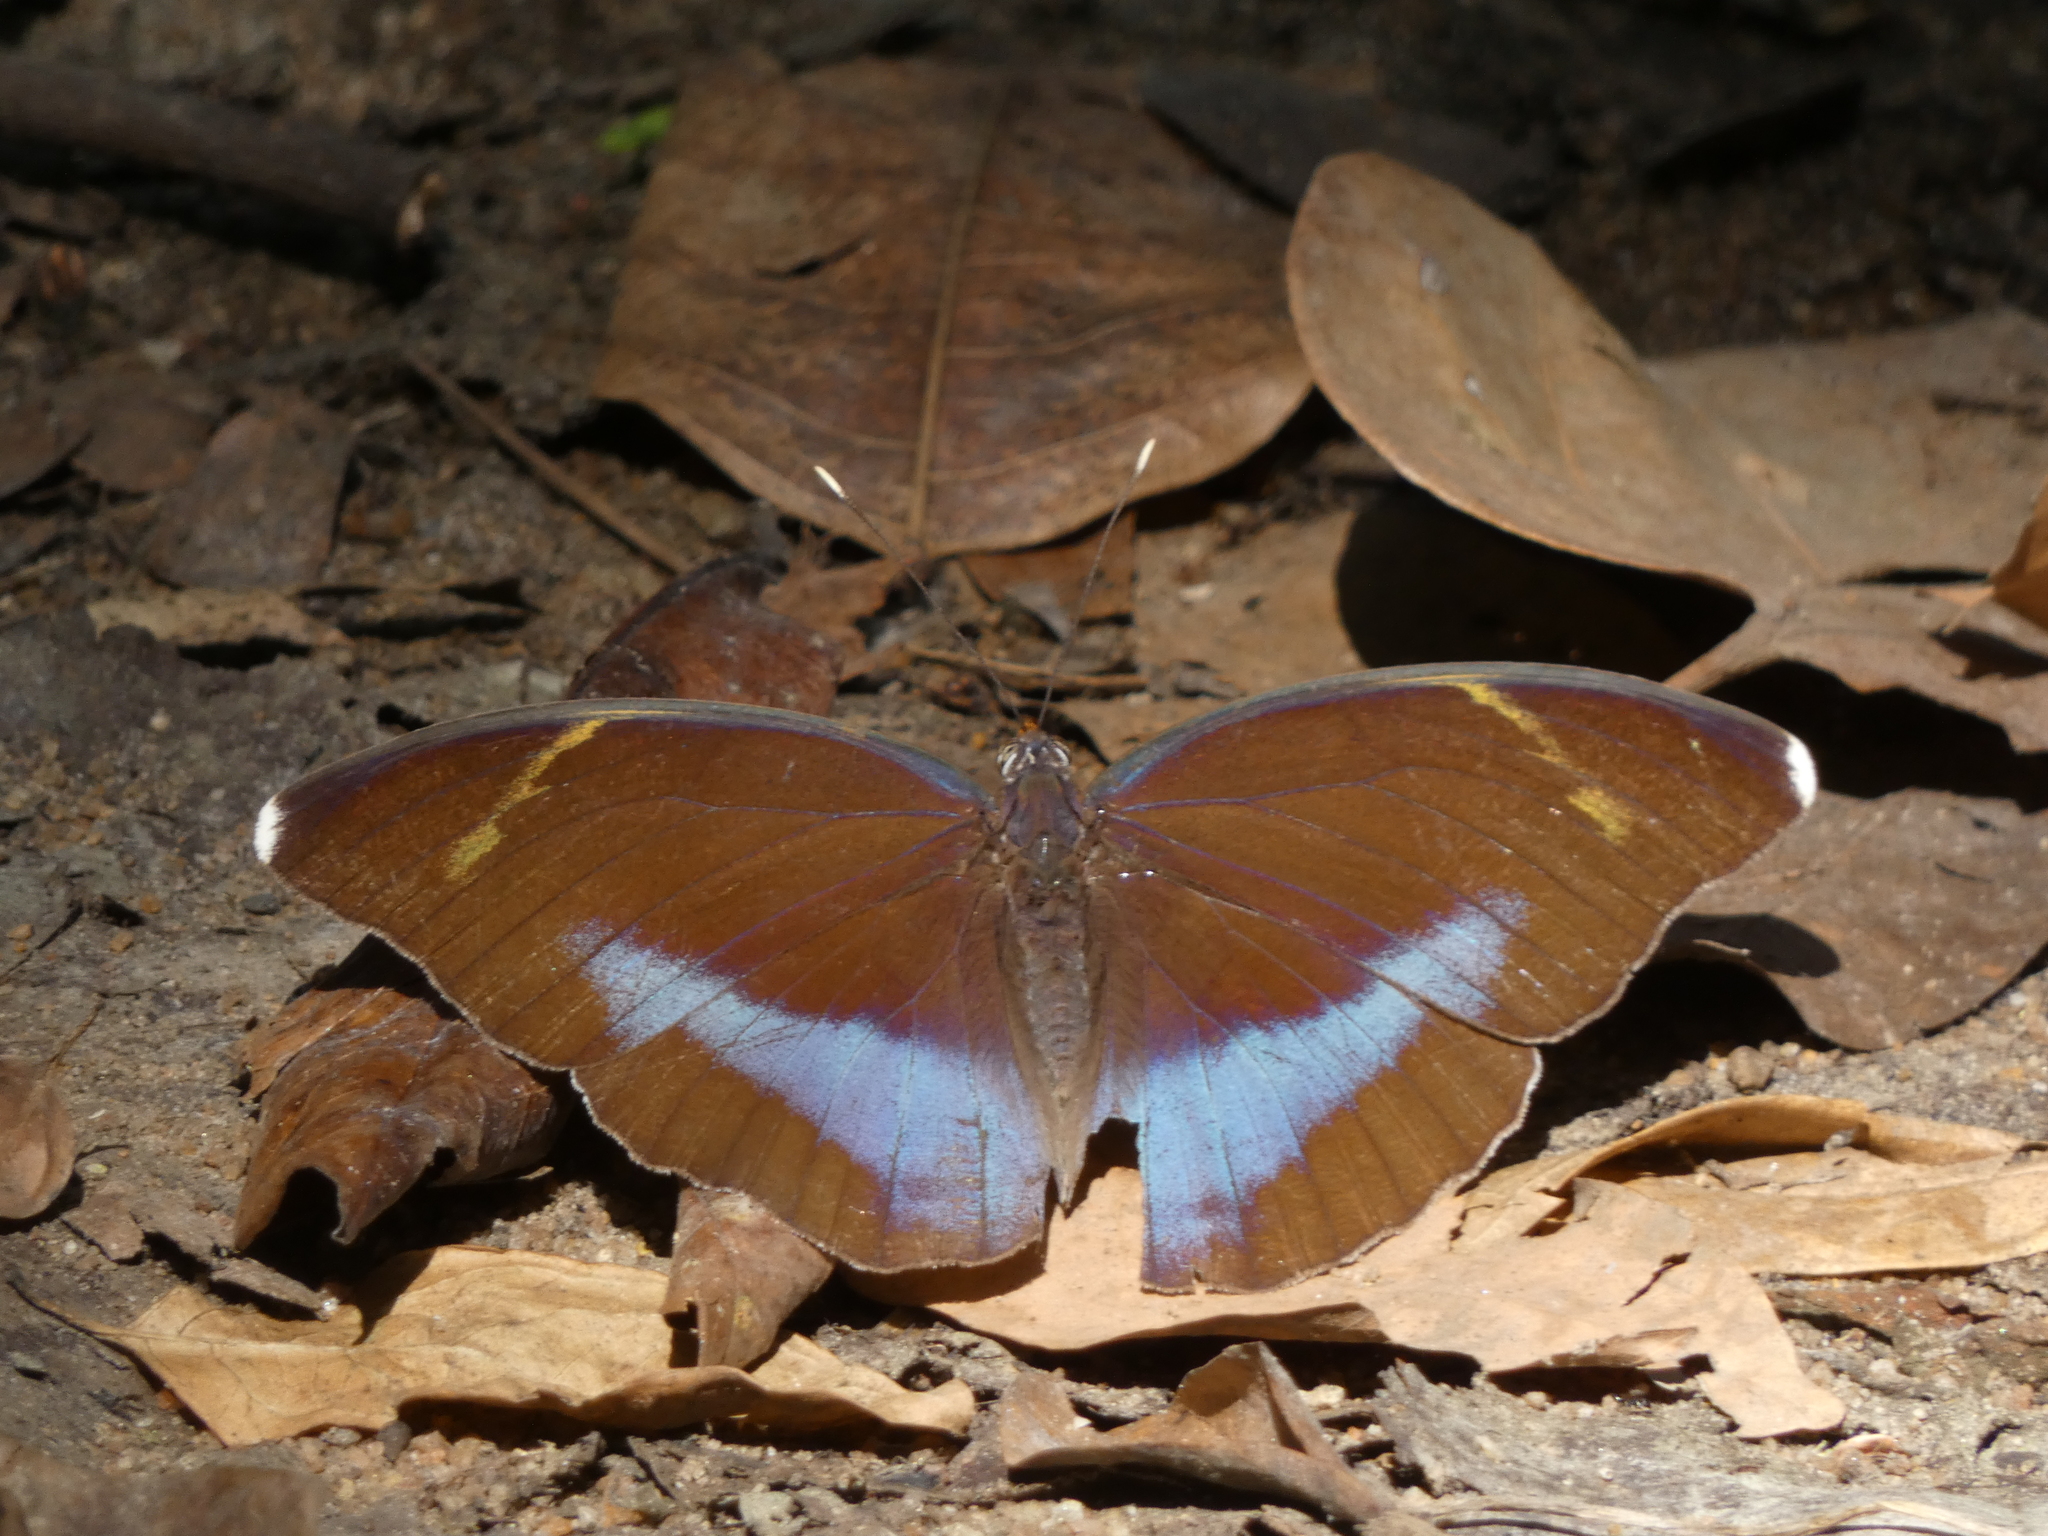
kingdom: Animalia
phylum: Arthropoda
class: Insecta
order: Lepidoptera
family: Nymphalidae
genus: Euphaedra
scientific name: Euphaedra harpalyce
